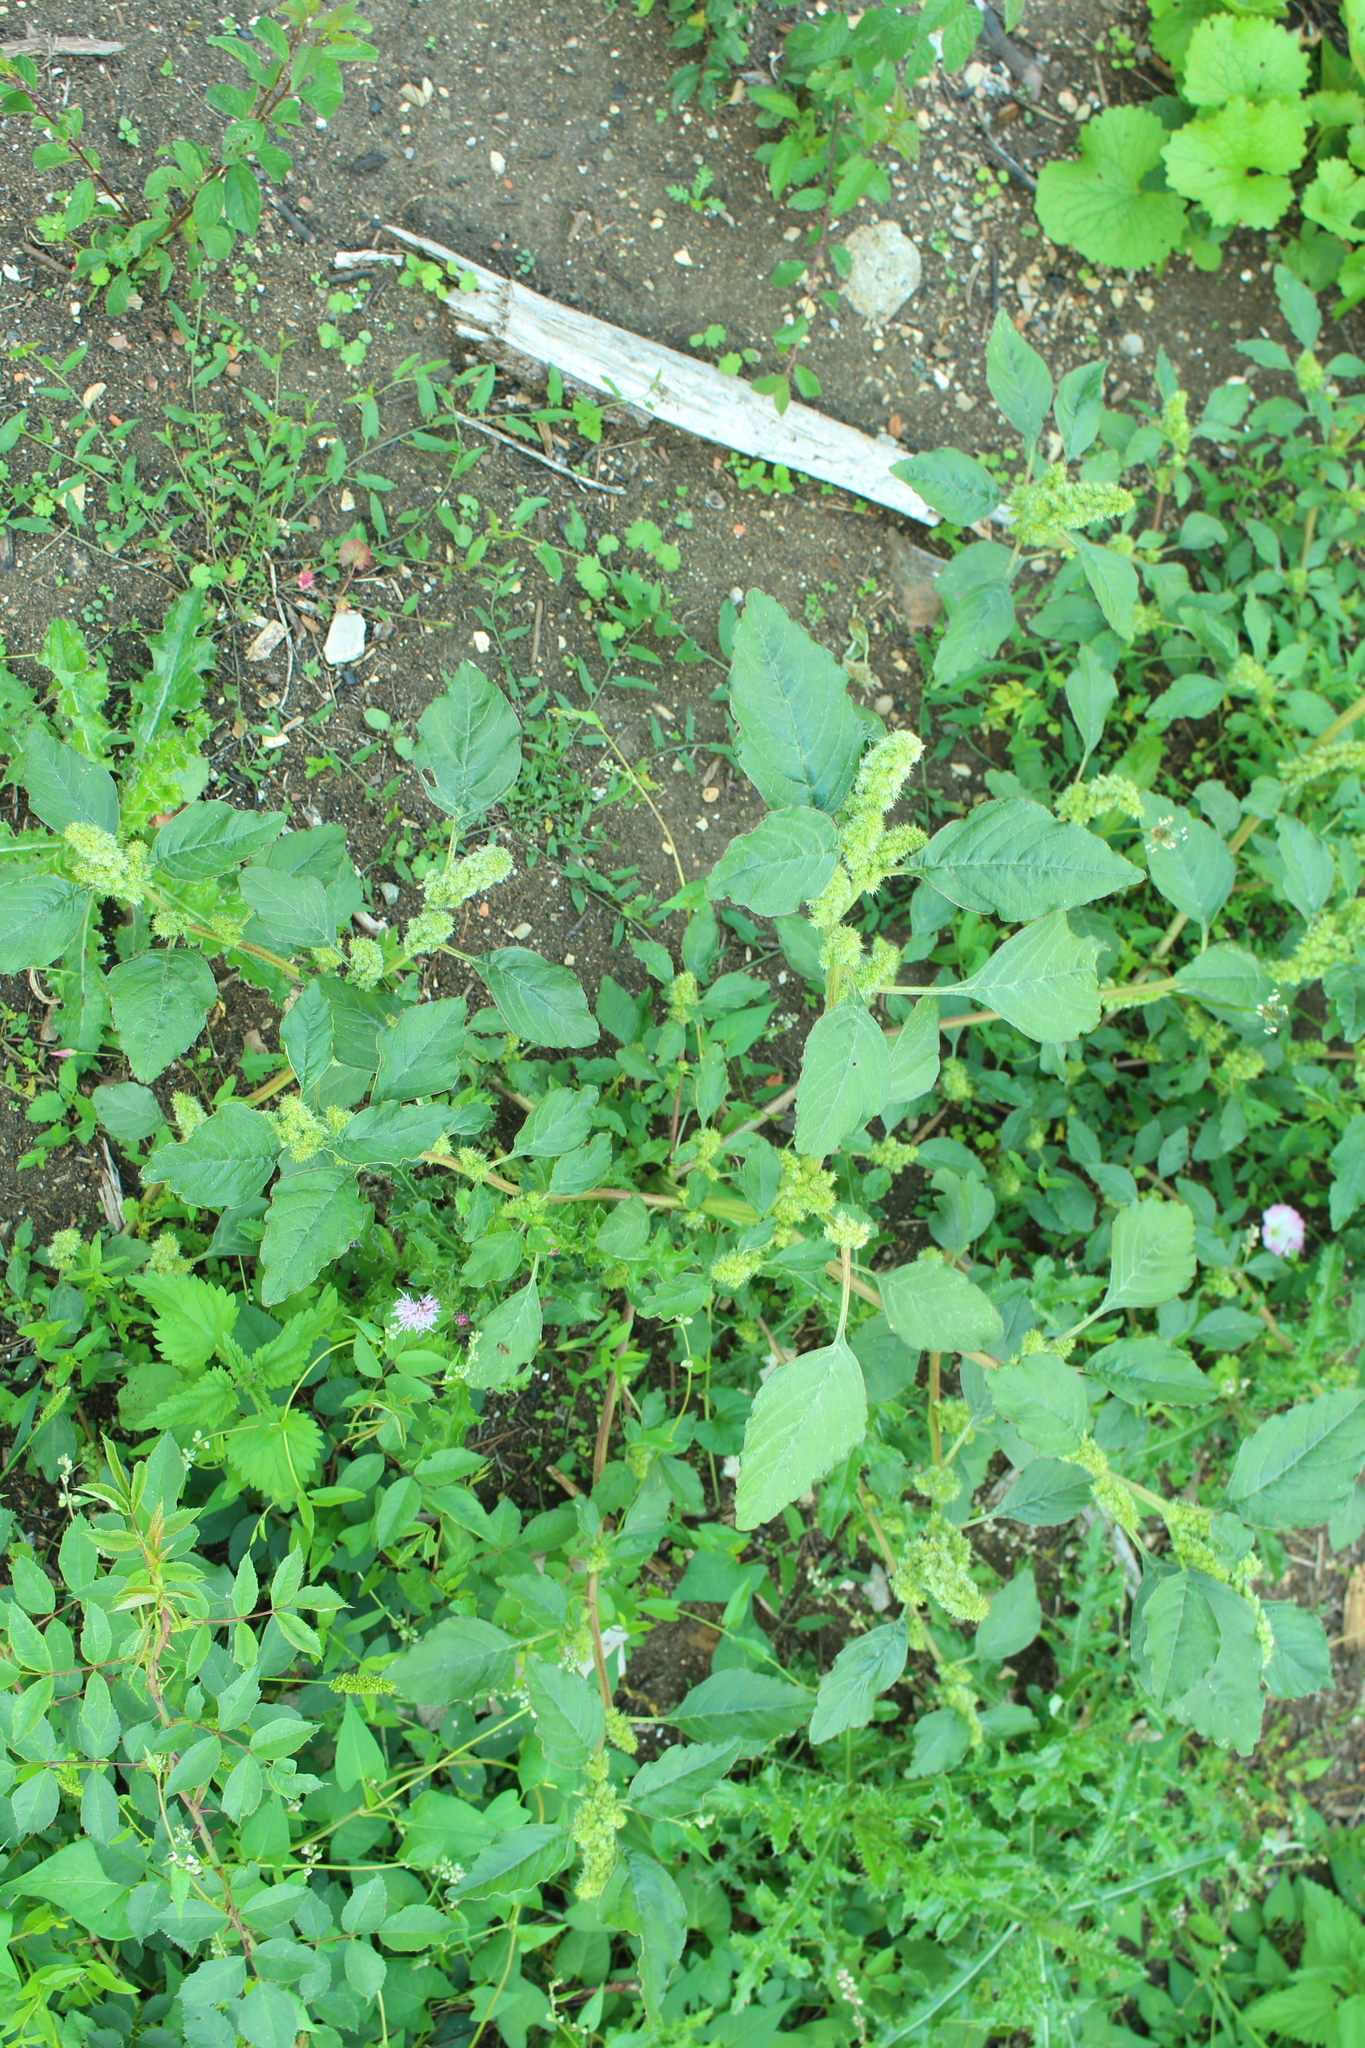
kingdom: Plantae
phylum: Tracheophyta
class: Magnoliopsida
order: Caryophyllales
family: Amaranthaceae
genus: Amaranthus
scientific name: Amaranthus retroflexus
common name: Redroot amaranth
